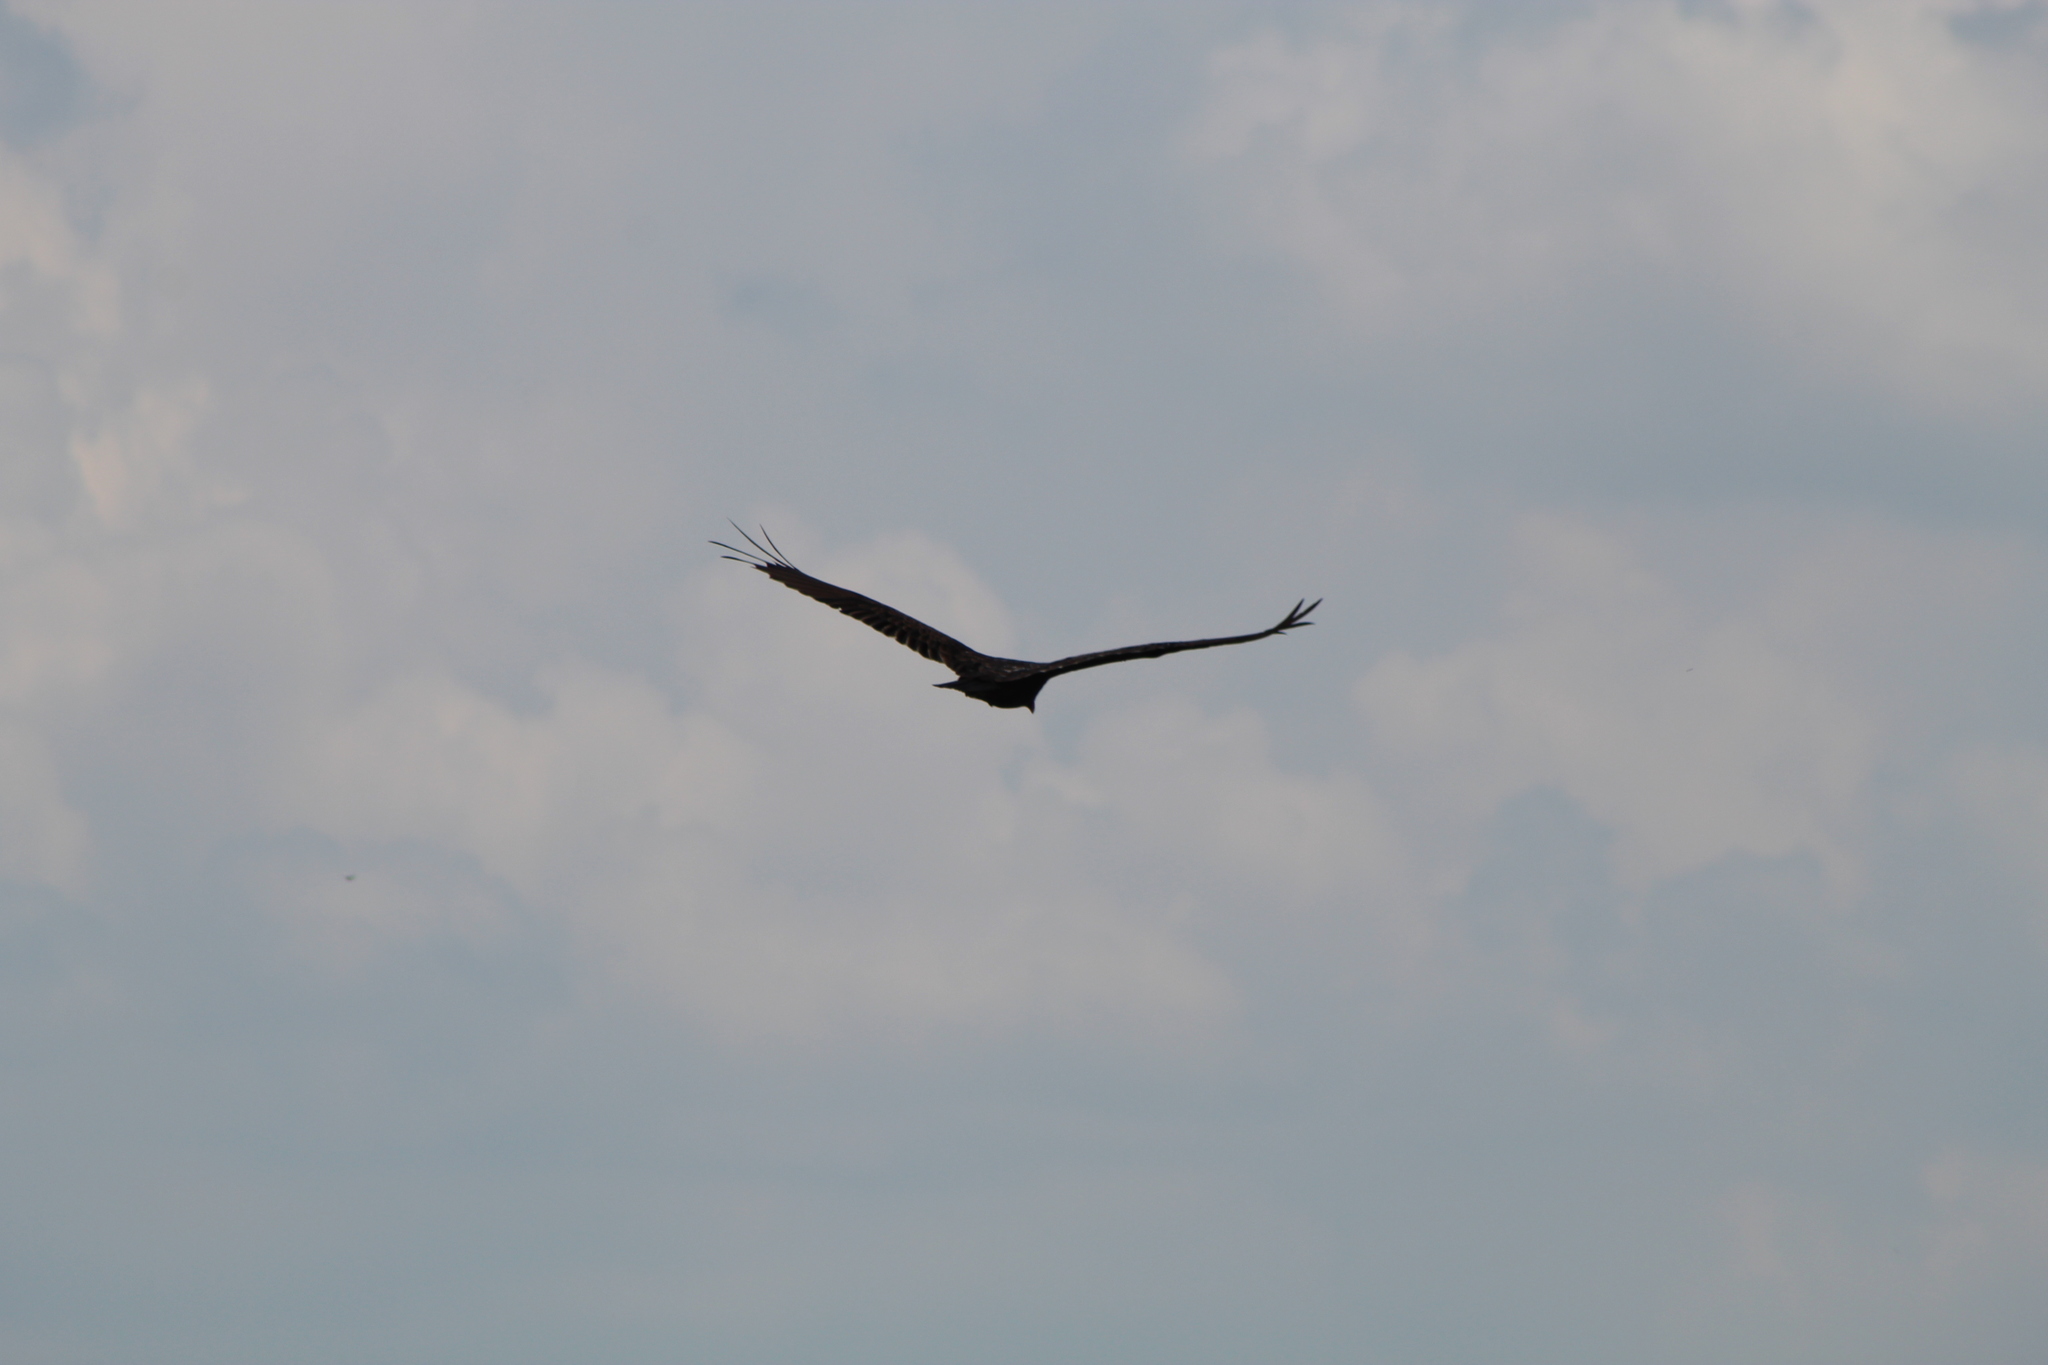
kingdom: Animalia
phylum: Chordata
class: Aves
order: Accipitriformes
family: Cathartidae
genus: Cathartes
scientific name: Cathartes aura
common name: Turkey vulture
